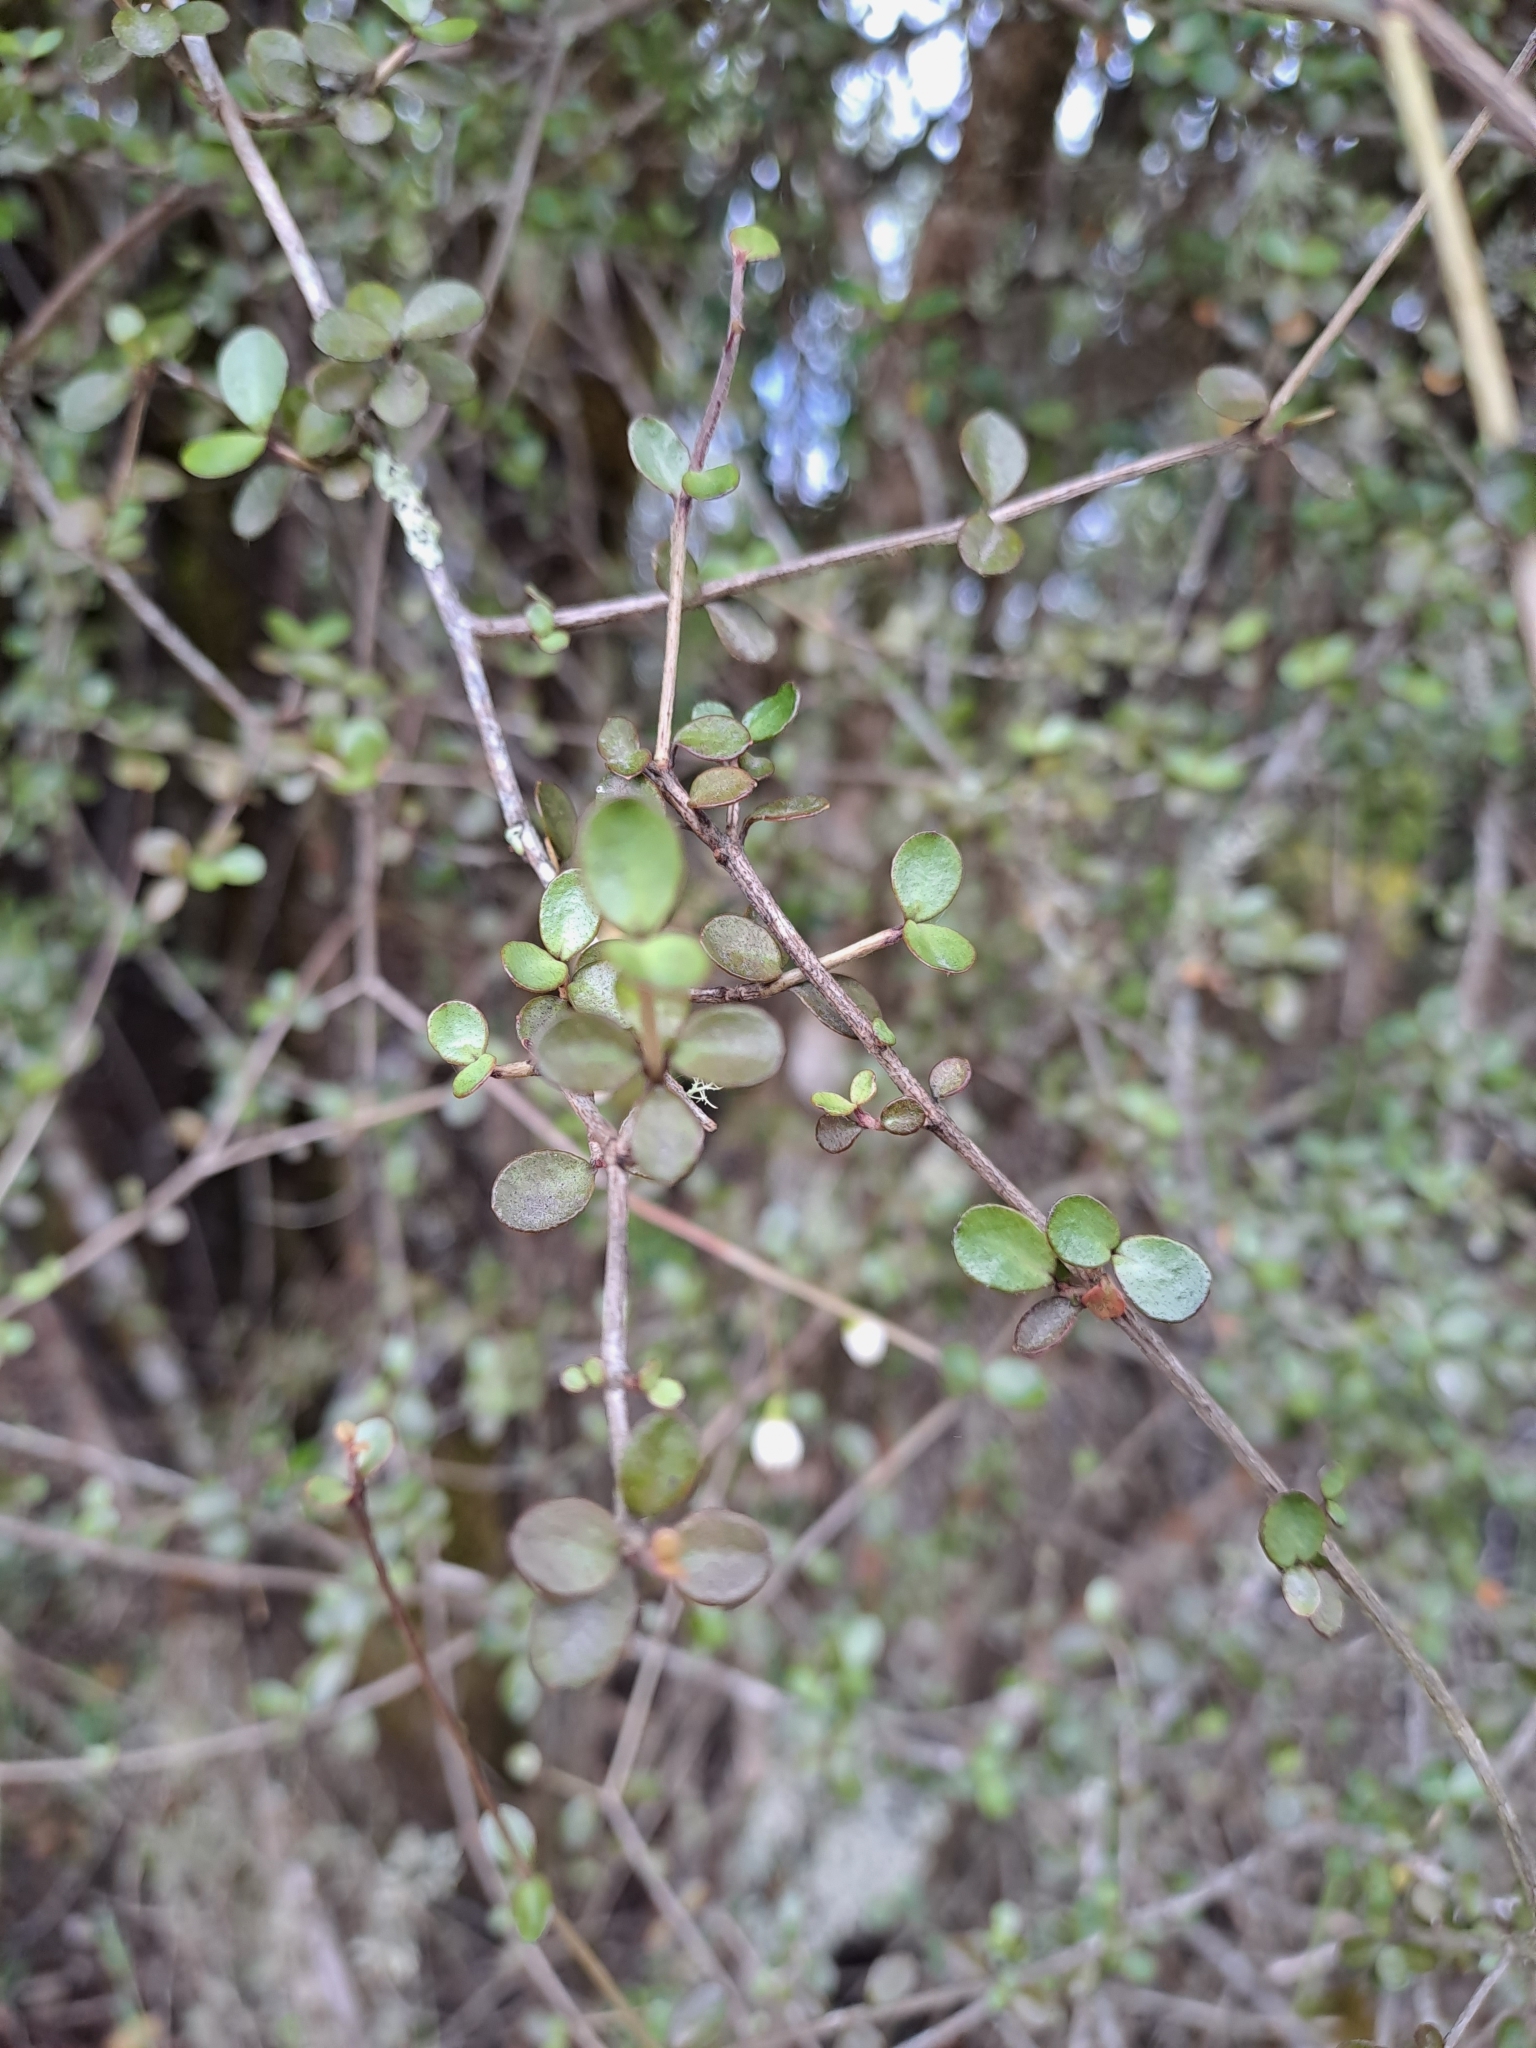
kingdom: Plantae
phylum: Tracheophyta
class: Magnoliopsida
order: Myrtales
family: Myrtaceae
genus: Neomyrtus
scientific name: Neomyrtus pedunculata
